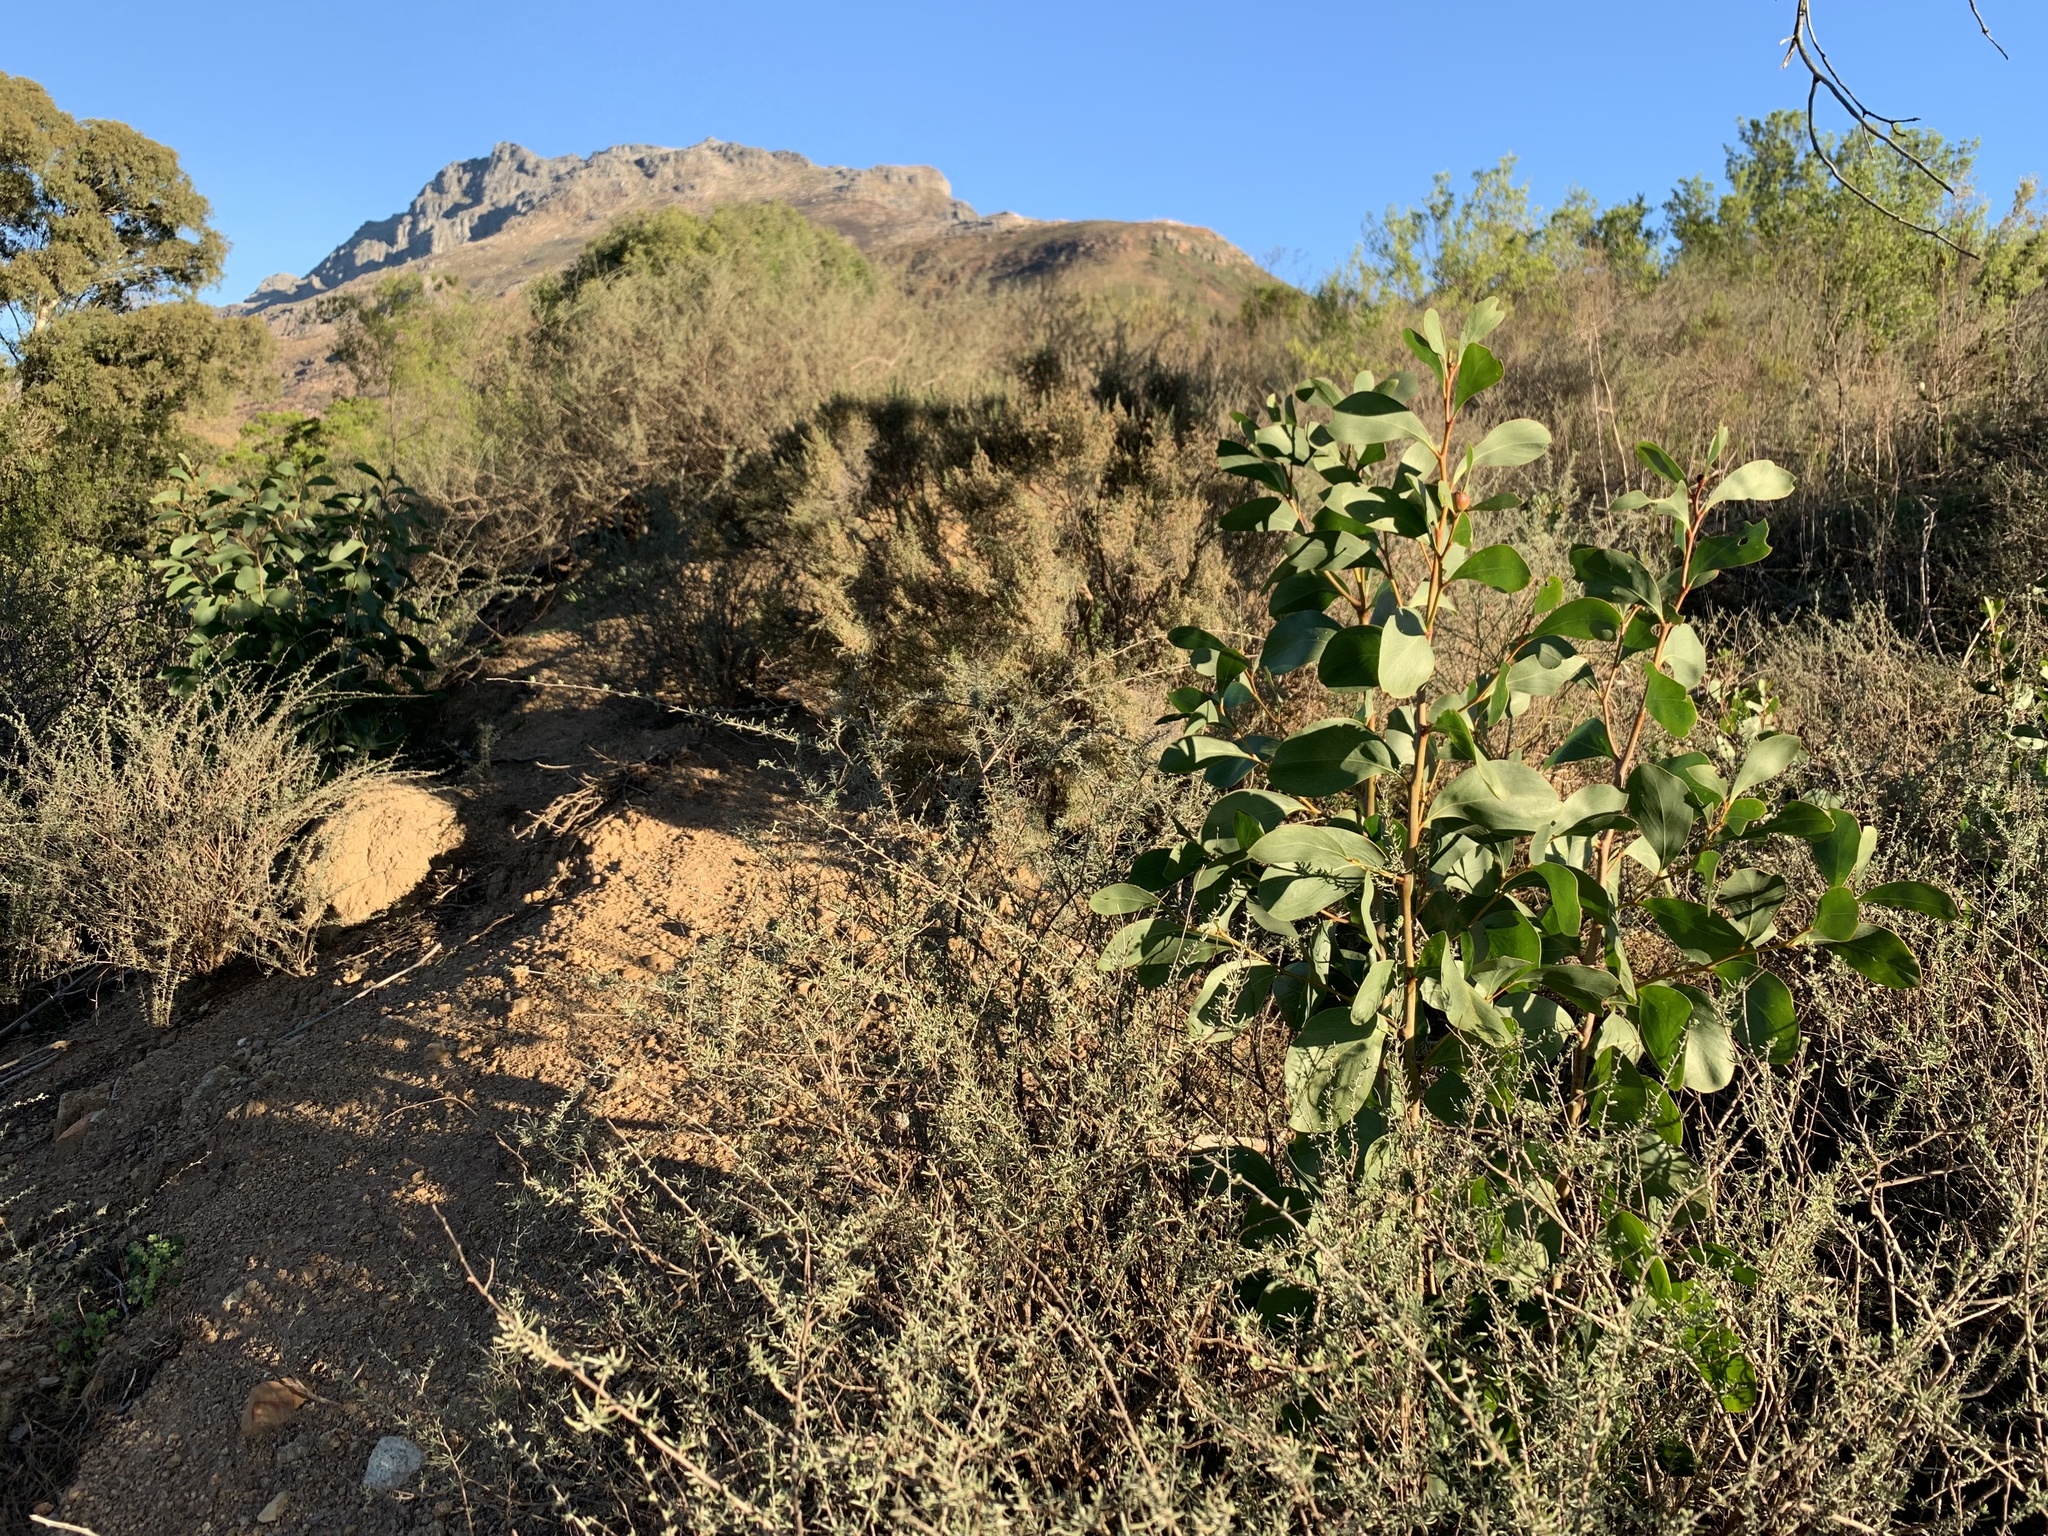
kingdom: Plantae
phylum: Tracheophyta
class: Magnoliopsida
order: Fabales
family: Fabaceae
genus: Acacia
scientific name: Acacia pycnantha
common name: Golden wattle
